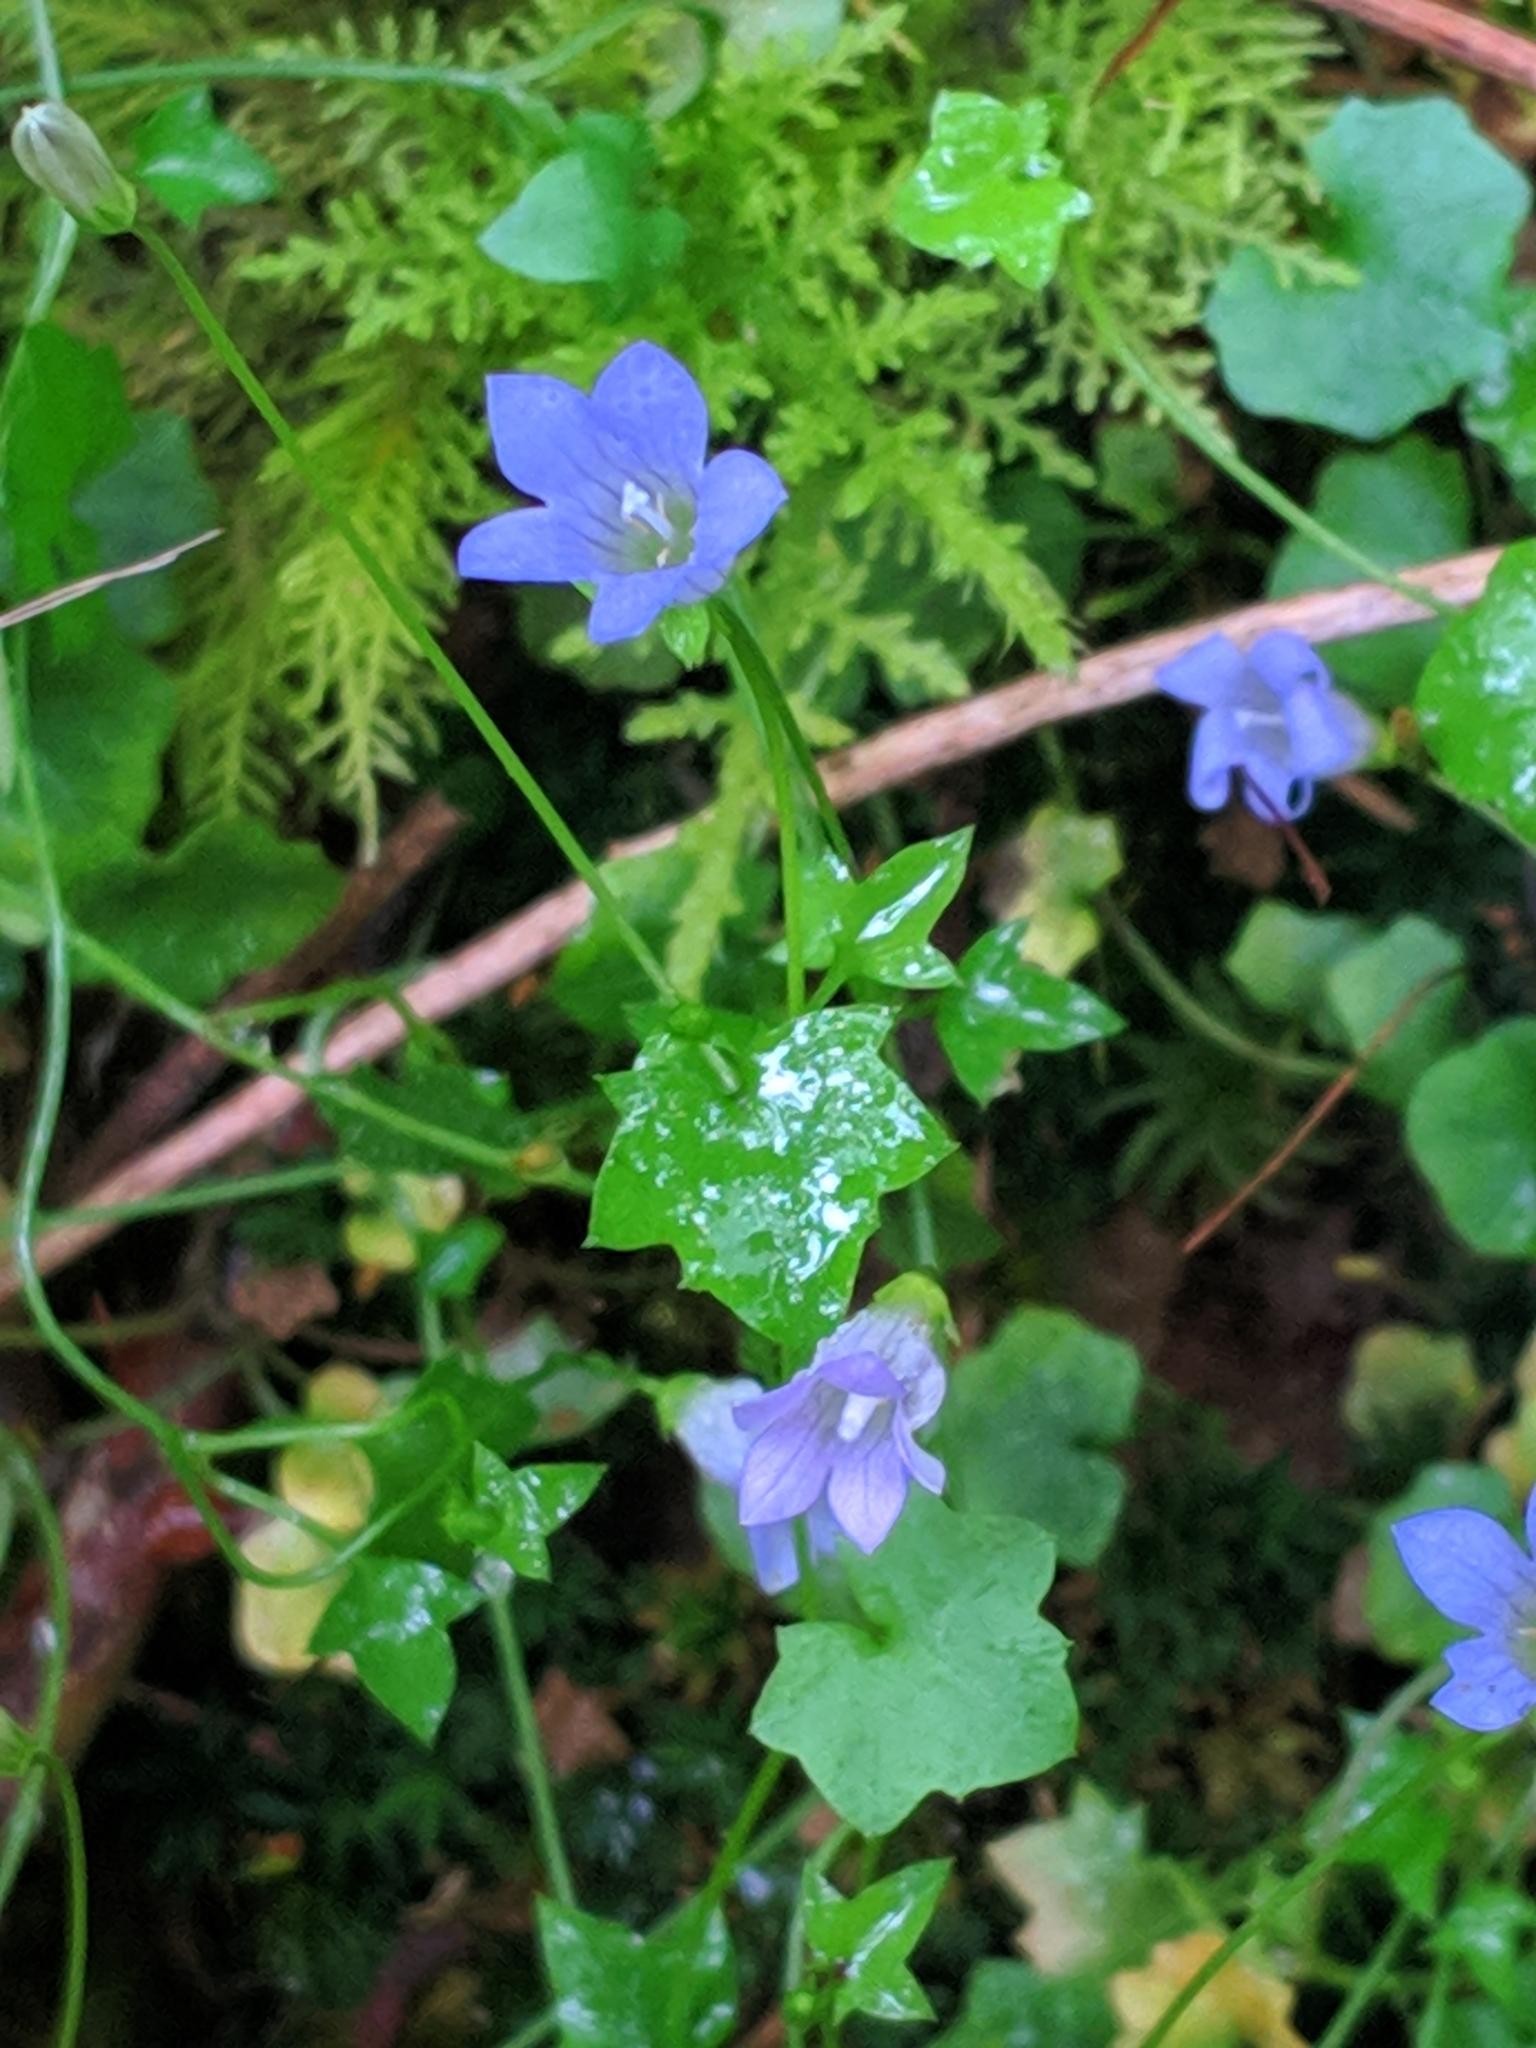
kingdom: Plantae
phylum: Tracheophyta
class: Magnoliopsida
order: Asterales
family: Campanulaceae
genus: Hesperocodon
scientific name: Hesperocodon hederaceus
